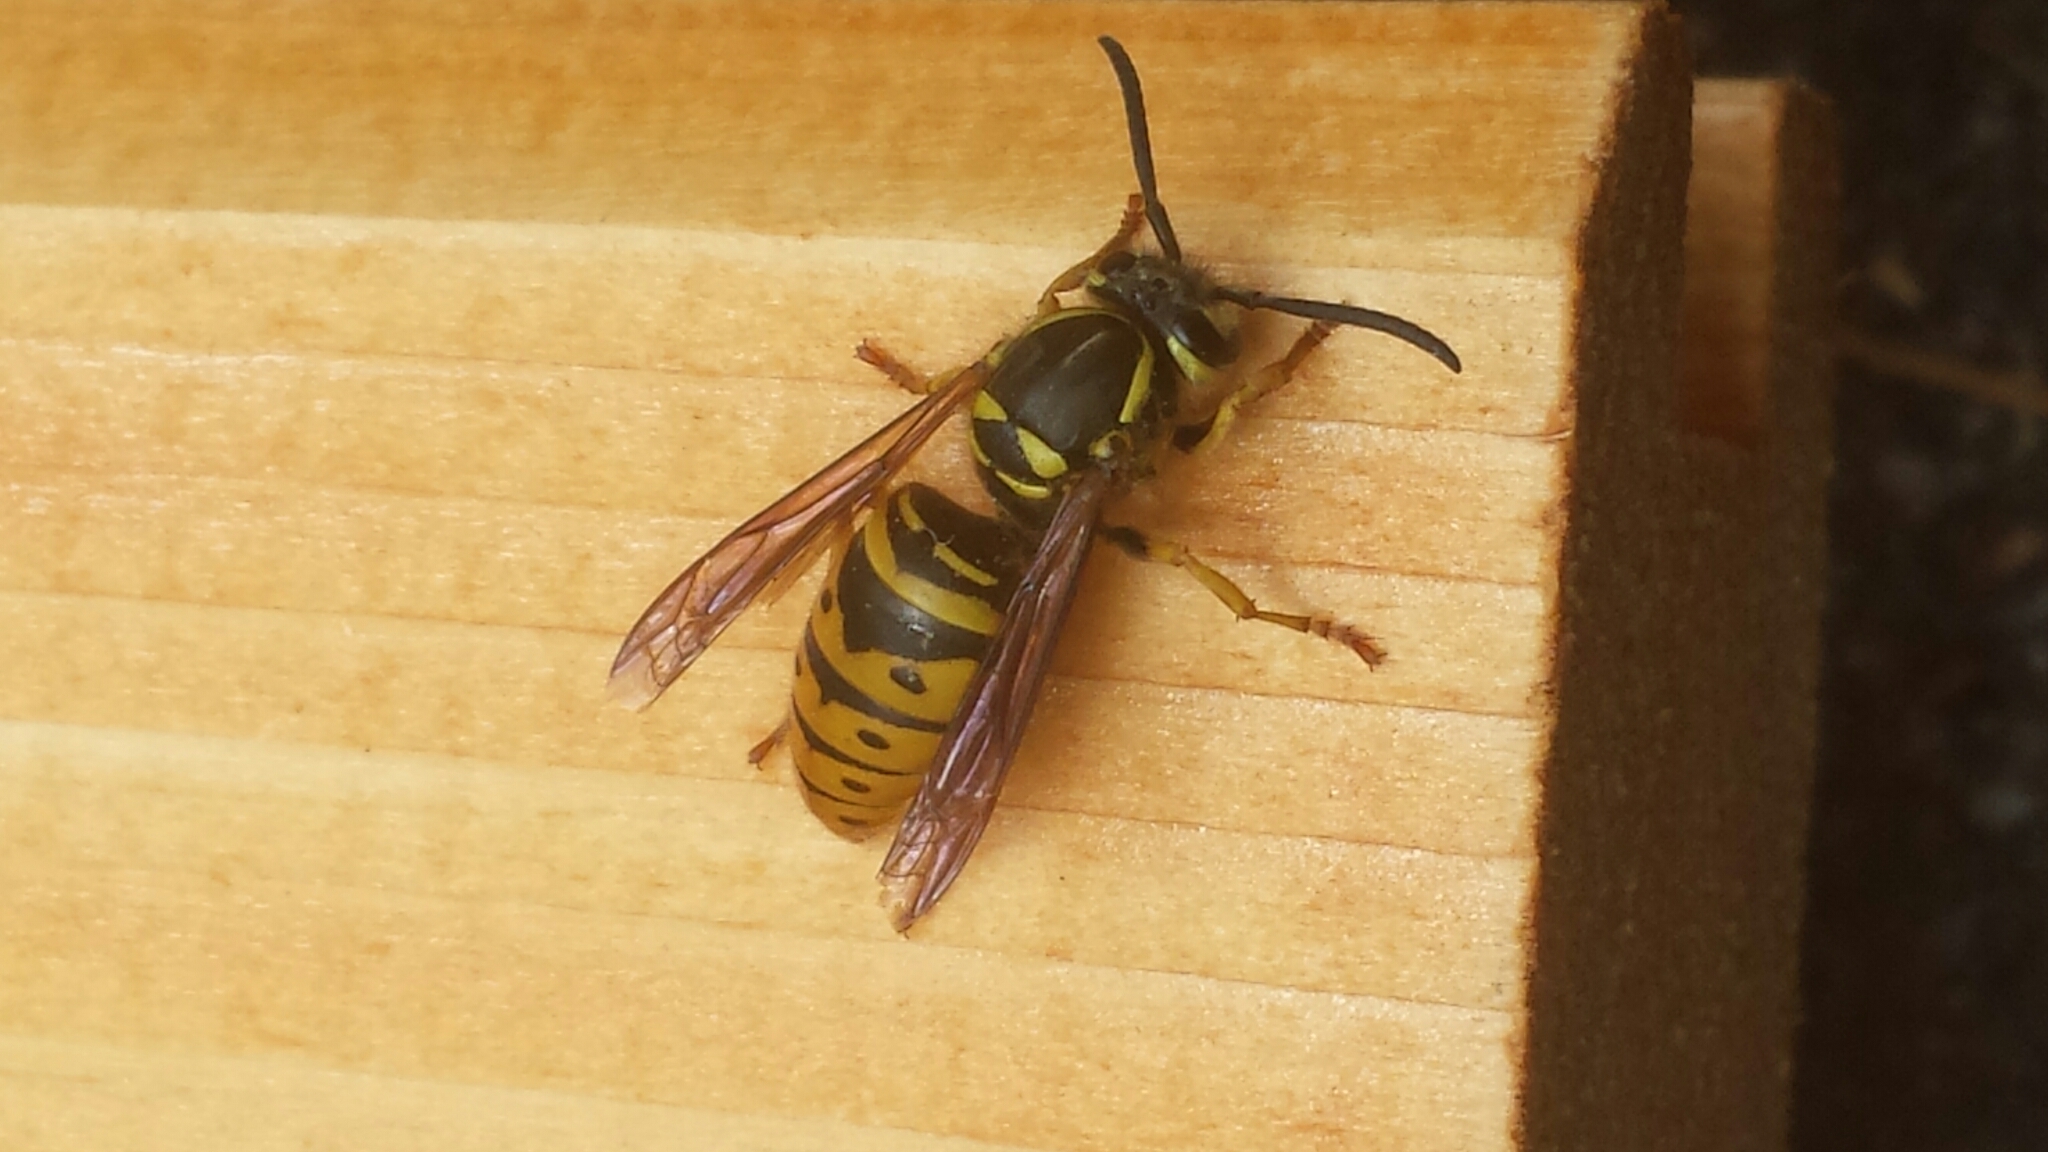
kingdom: Animalia
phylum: Arthropoda
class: Insecta
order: Hymenoptera
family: Vespidae
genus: Vespula
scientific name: Vespula maculifrons
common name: Eastern yellowjacket
